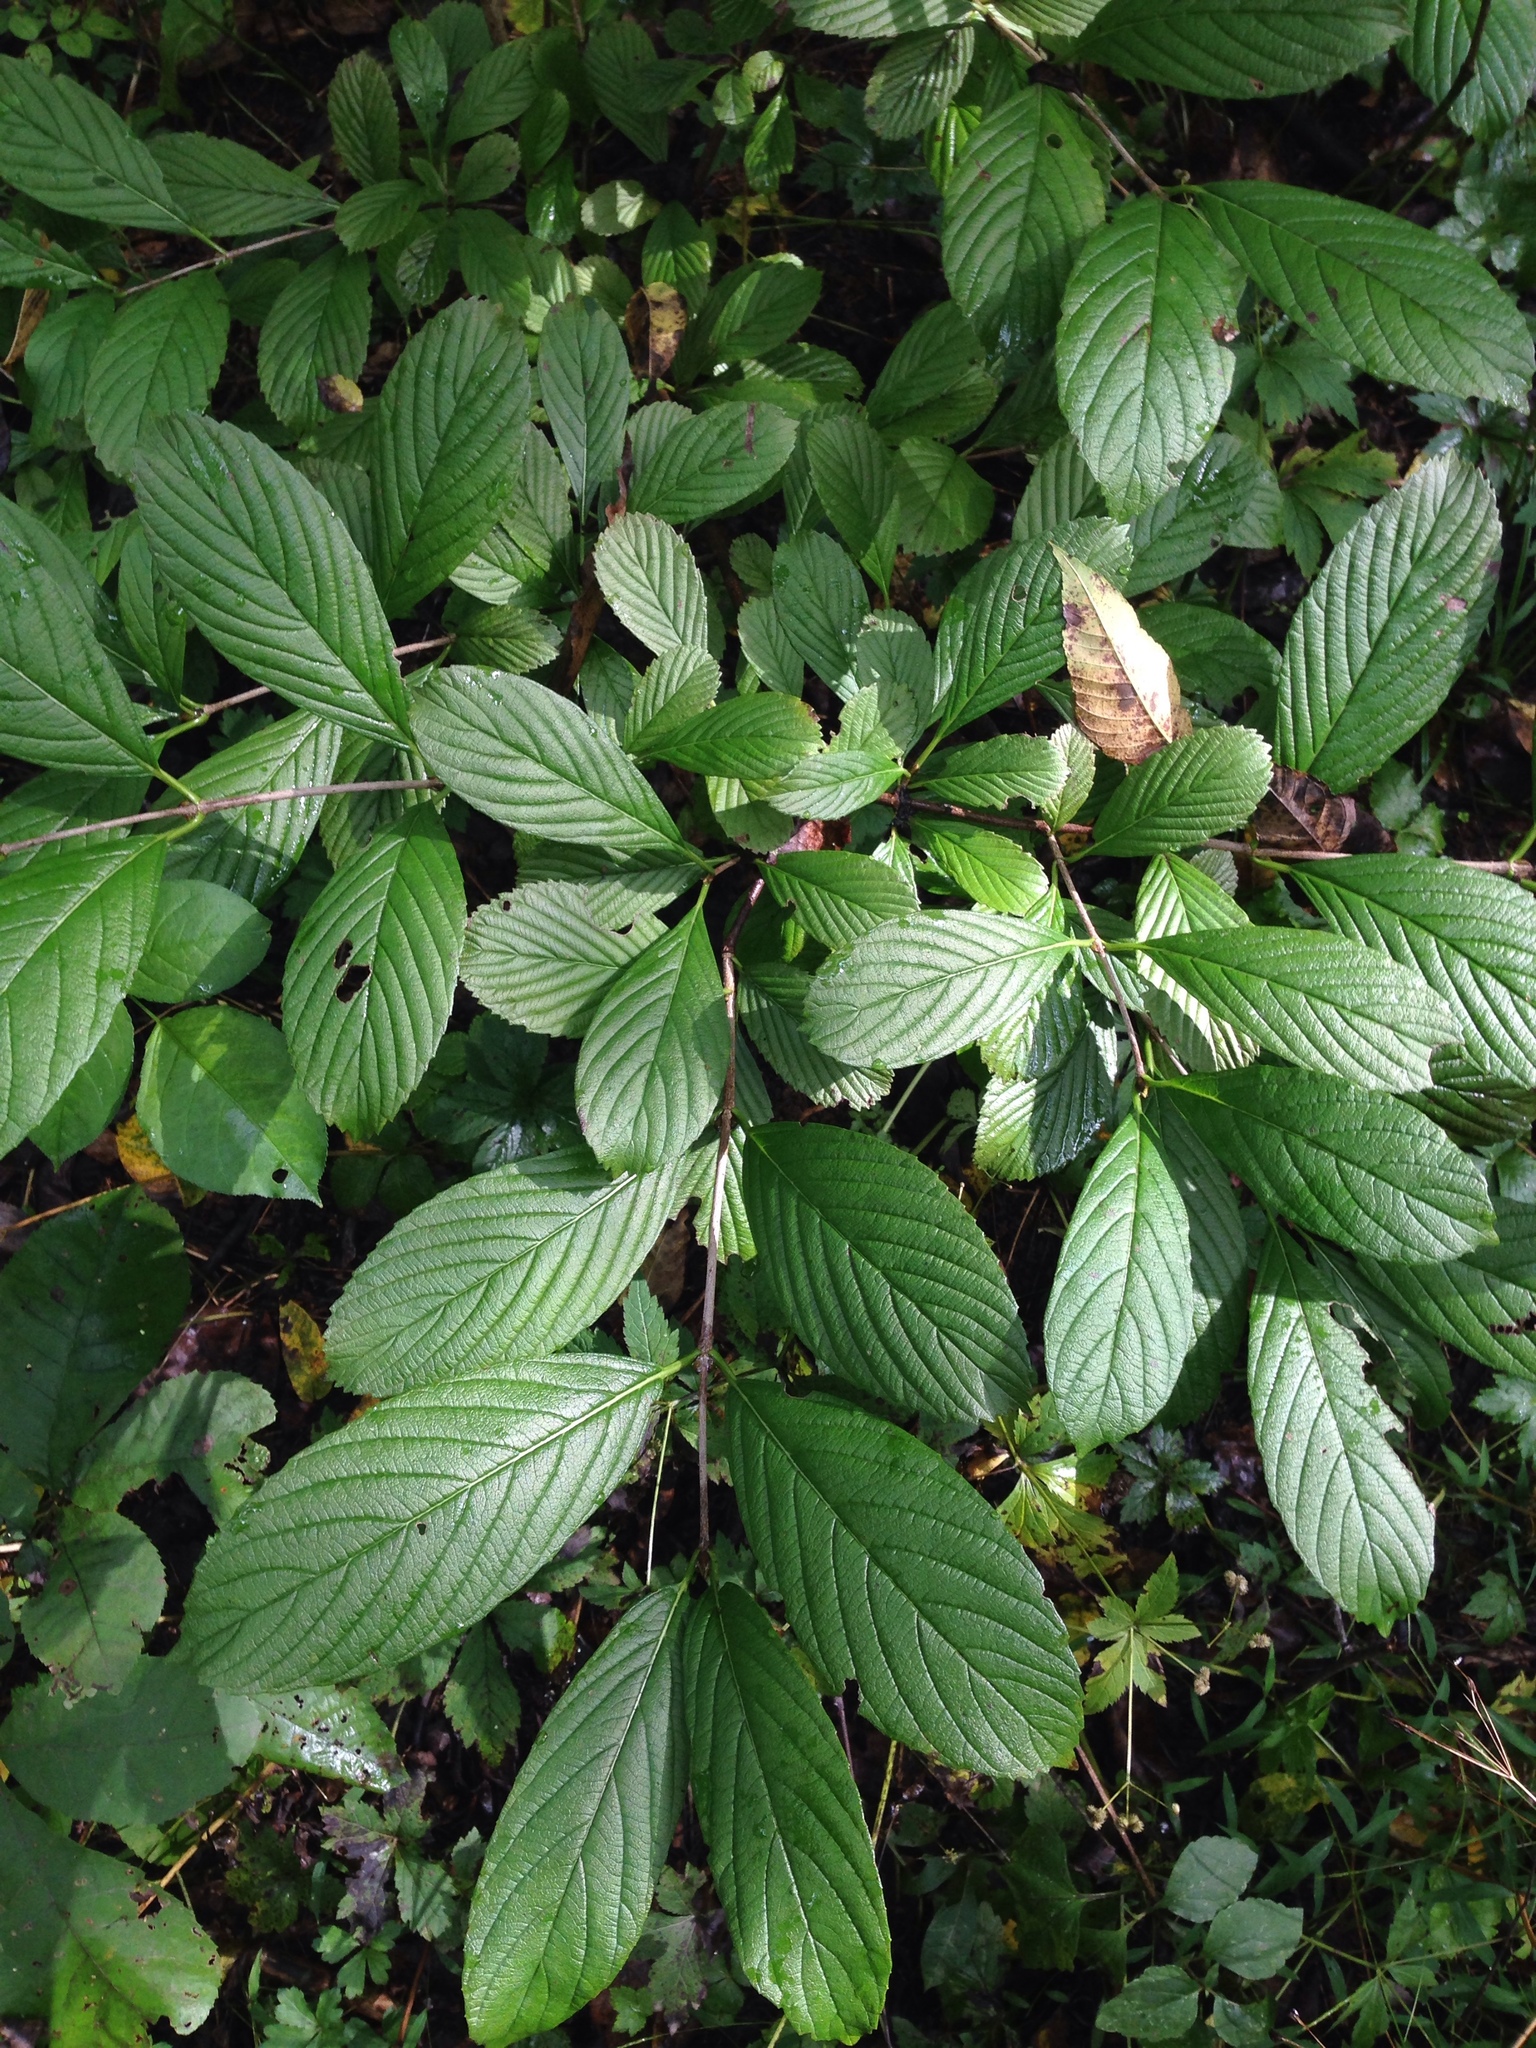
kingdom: Plantae
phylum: Tracheophyta
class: Magnoliopsida
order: Dipsacales
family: Viburnaceae
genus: Viburnum
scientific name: Viburnum sieboldii
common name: Siebold's arrowwood
